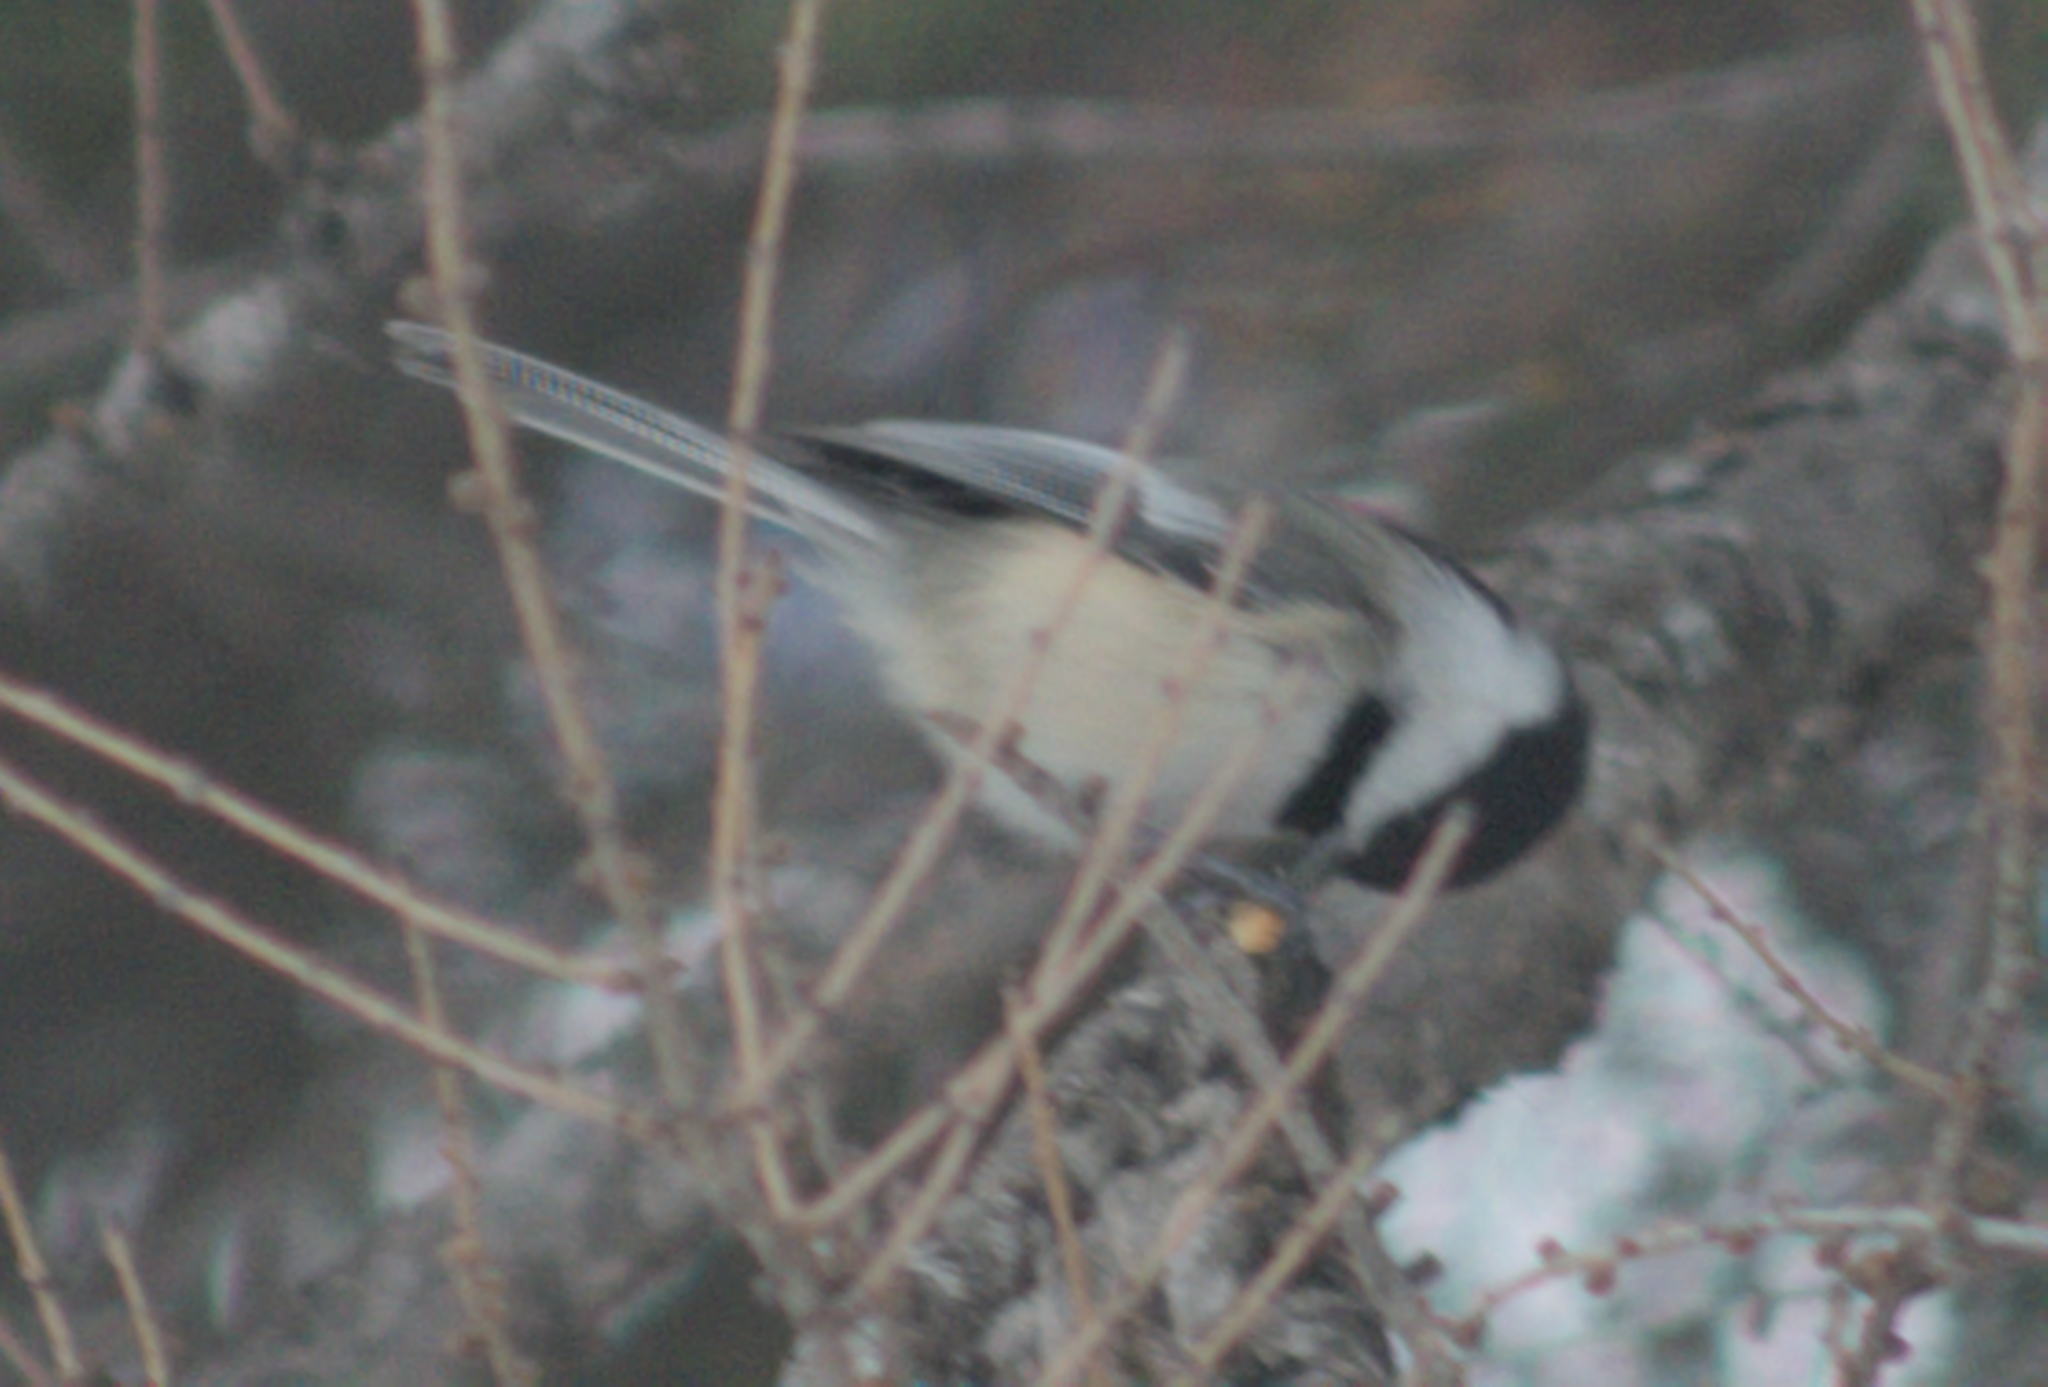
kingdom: Animalia
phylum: Chordata
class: Aves
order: Passeriformes
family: Paridae
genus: Poecile
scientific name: Poecile atricapillus
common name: Black-capped chickadee
